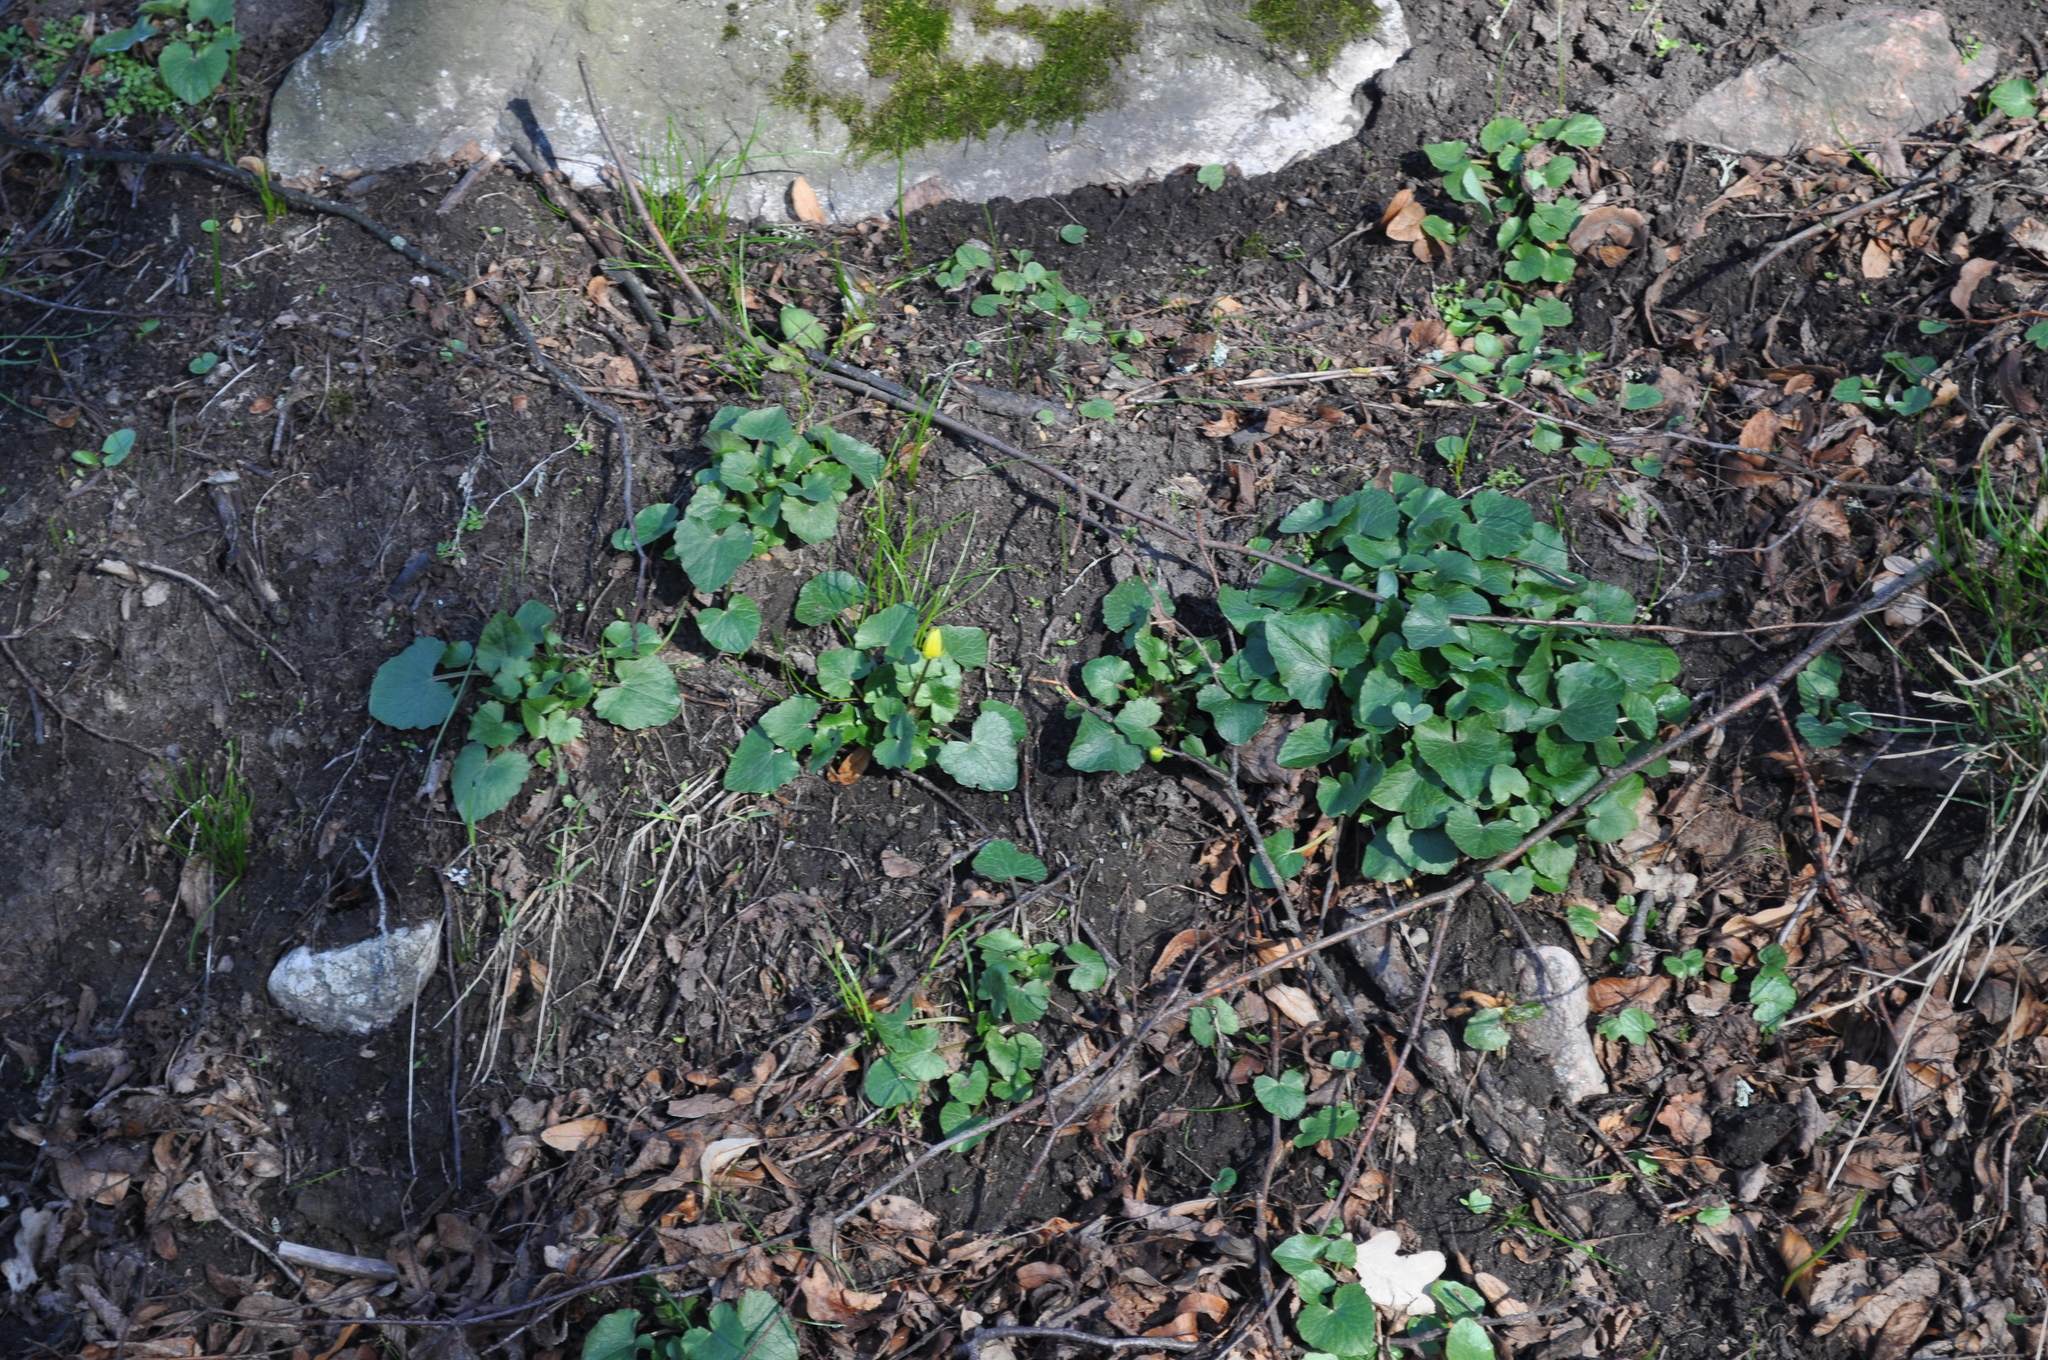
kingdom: Plantae
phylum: Tracheophyta
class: Magnoliopsida
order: Ranunculales
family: Ranunculaceae
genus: Ficaria
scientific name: Ficaria verna
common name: Lesser celandine
